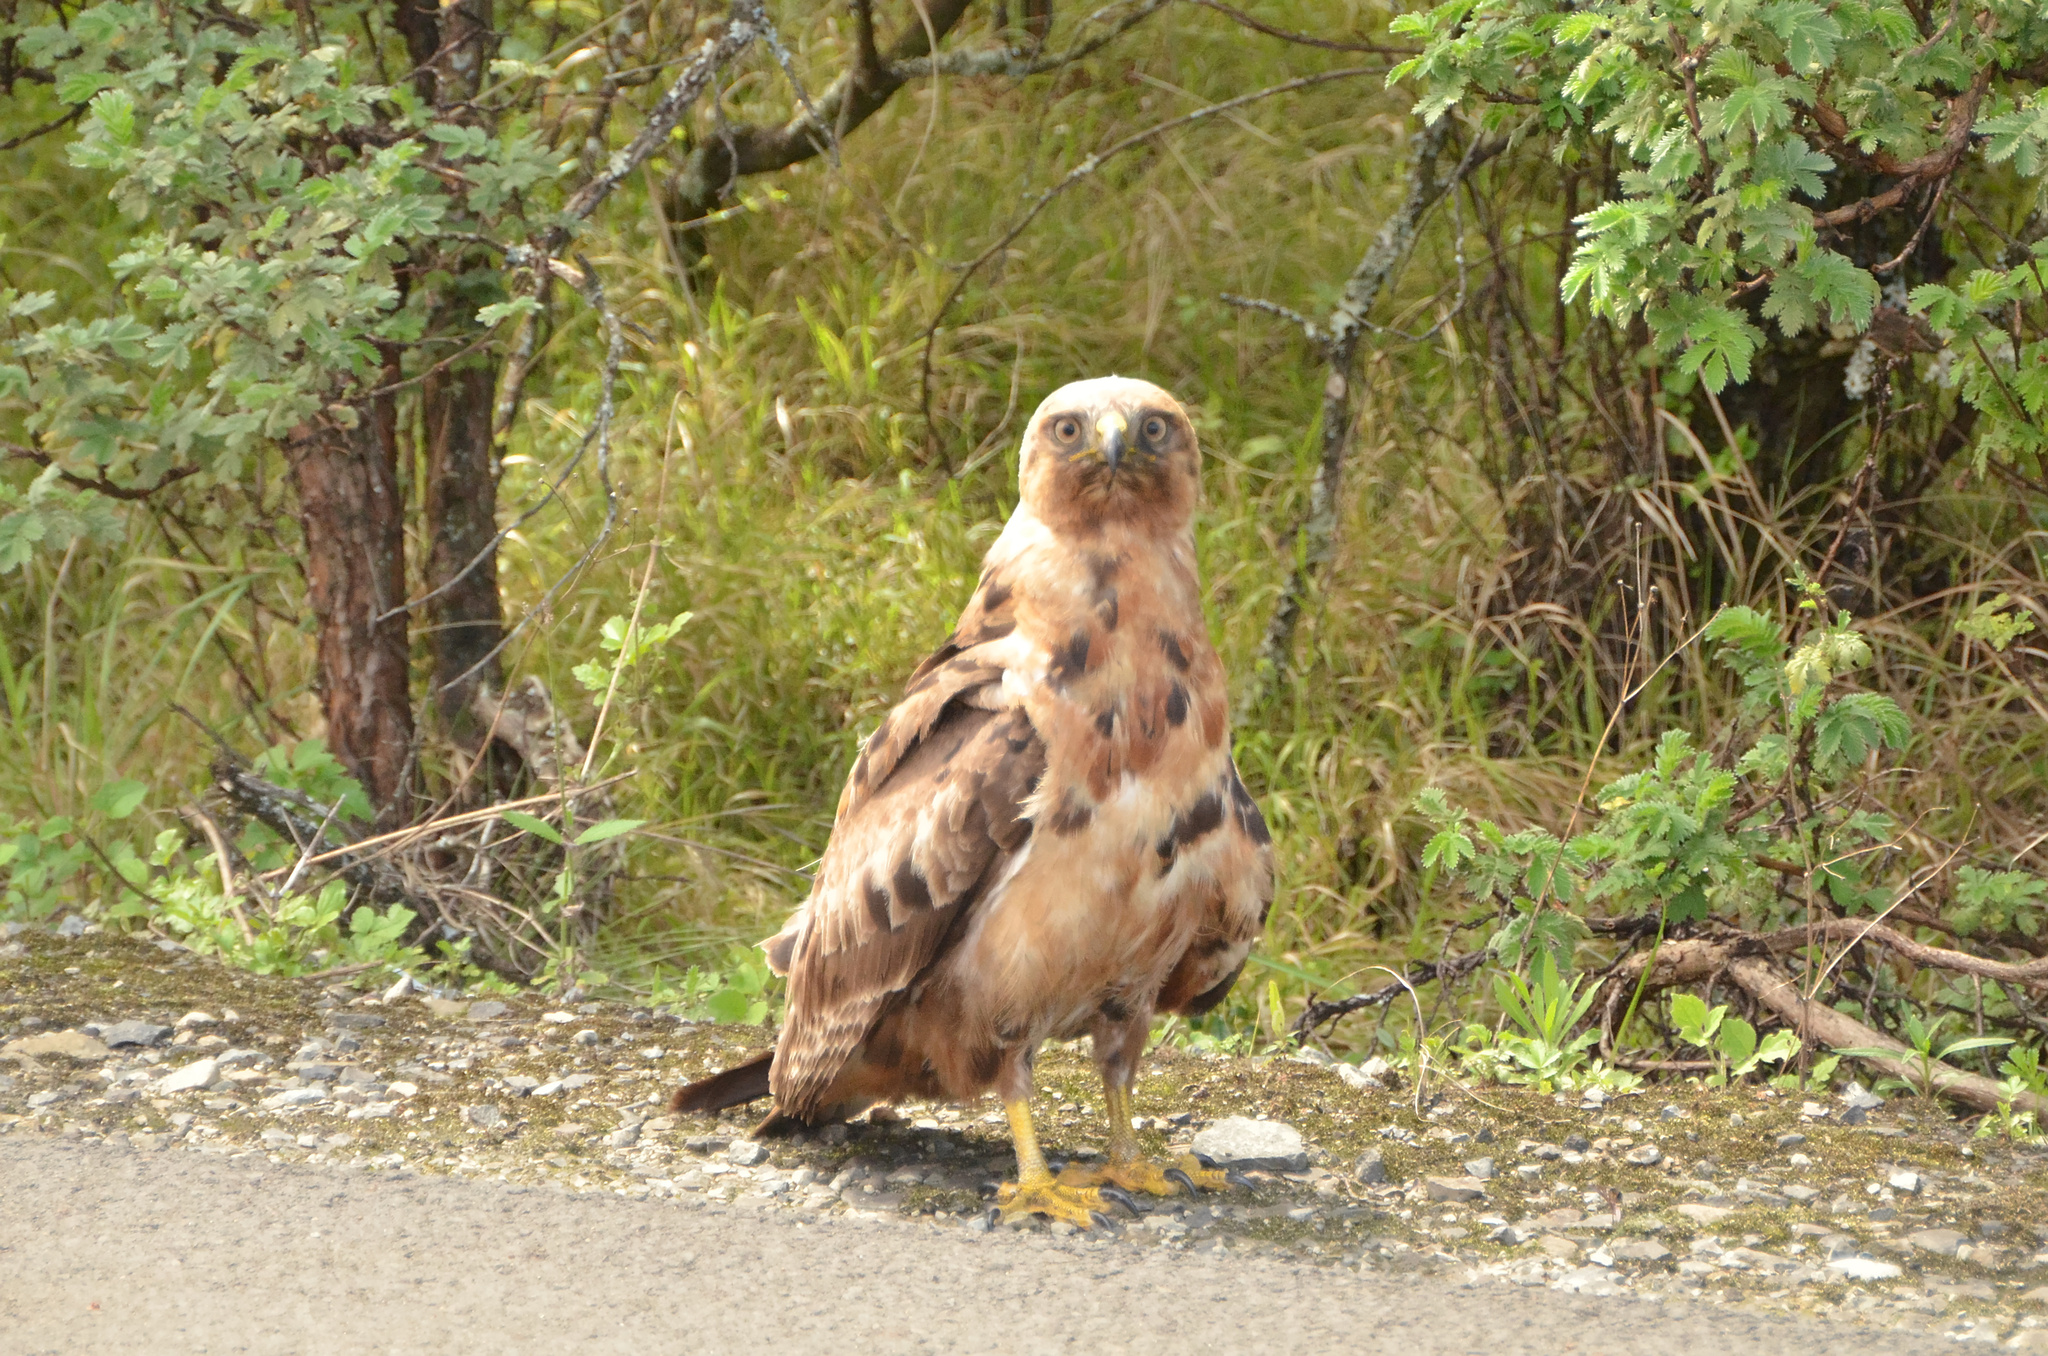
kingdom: Animalia
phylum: Chordata
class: Aves
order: Accipitriformes
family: Accipitridae
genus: Buteo
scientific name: Buteo rufofuscus
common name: Jackal buzzard
